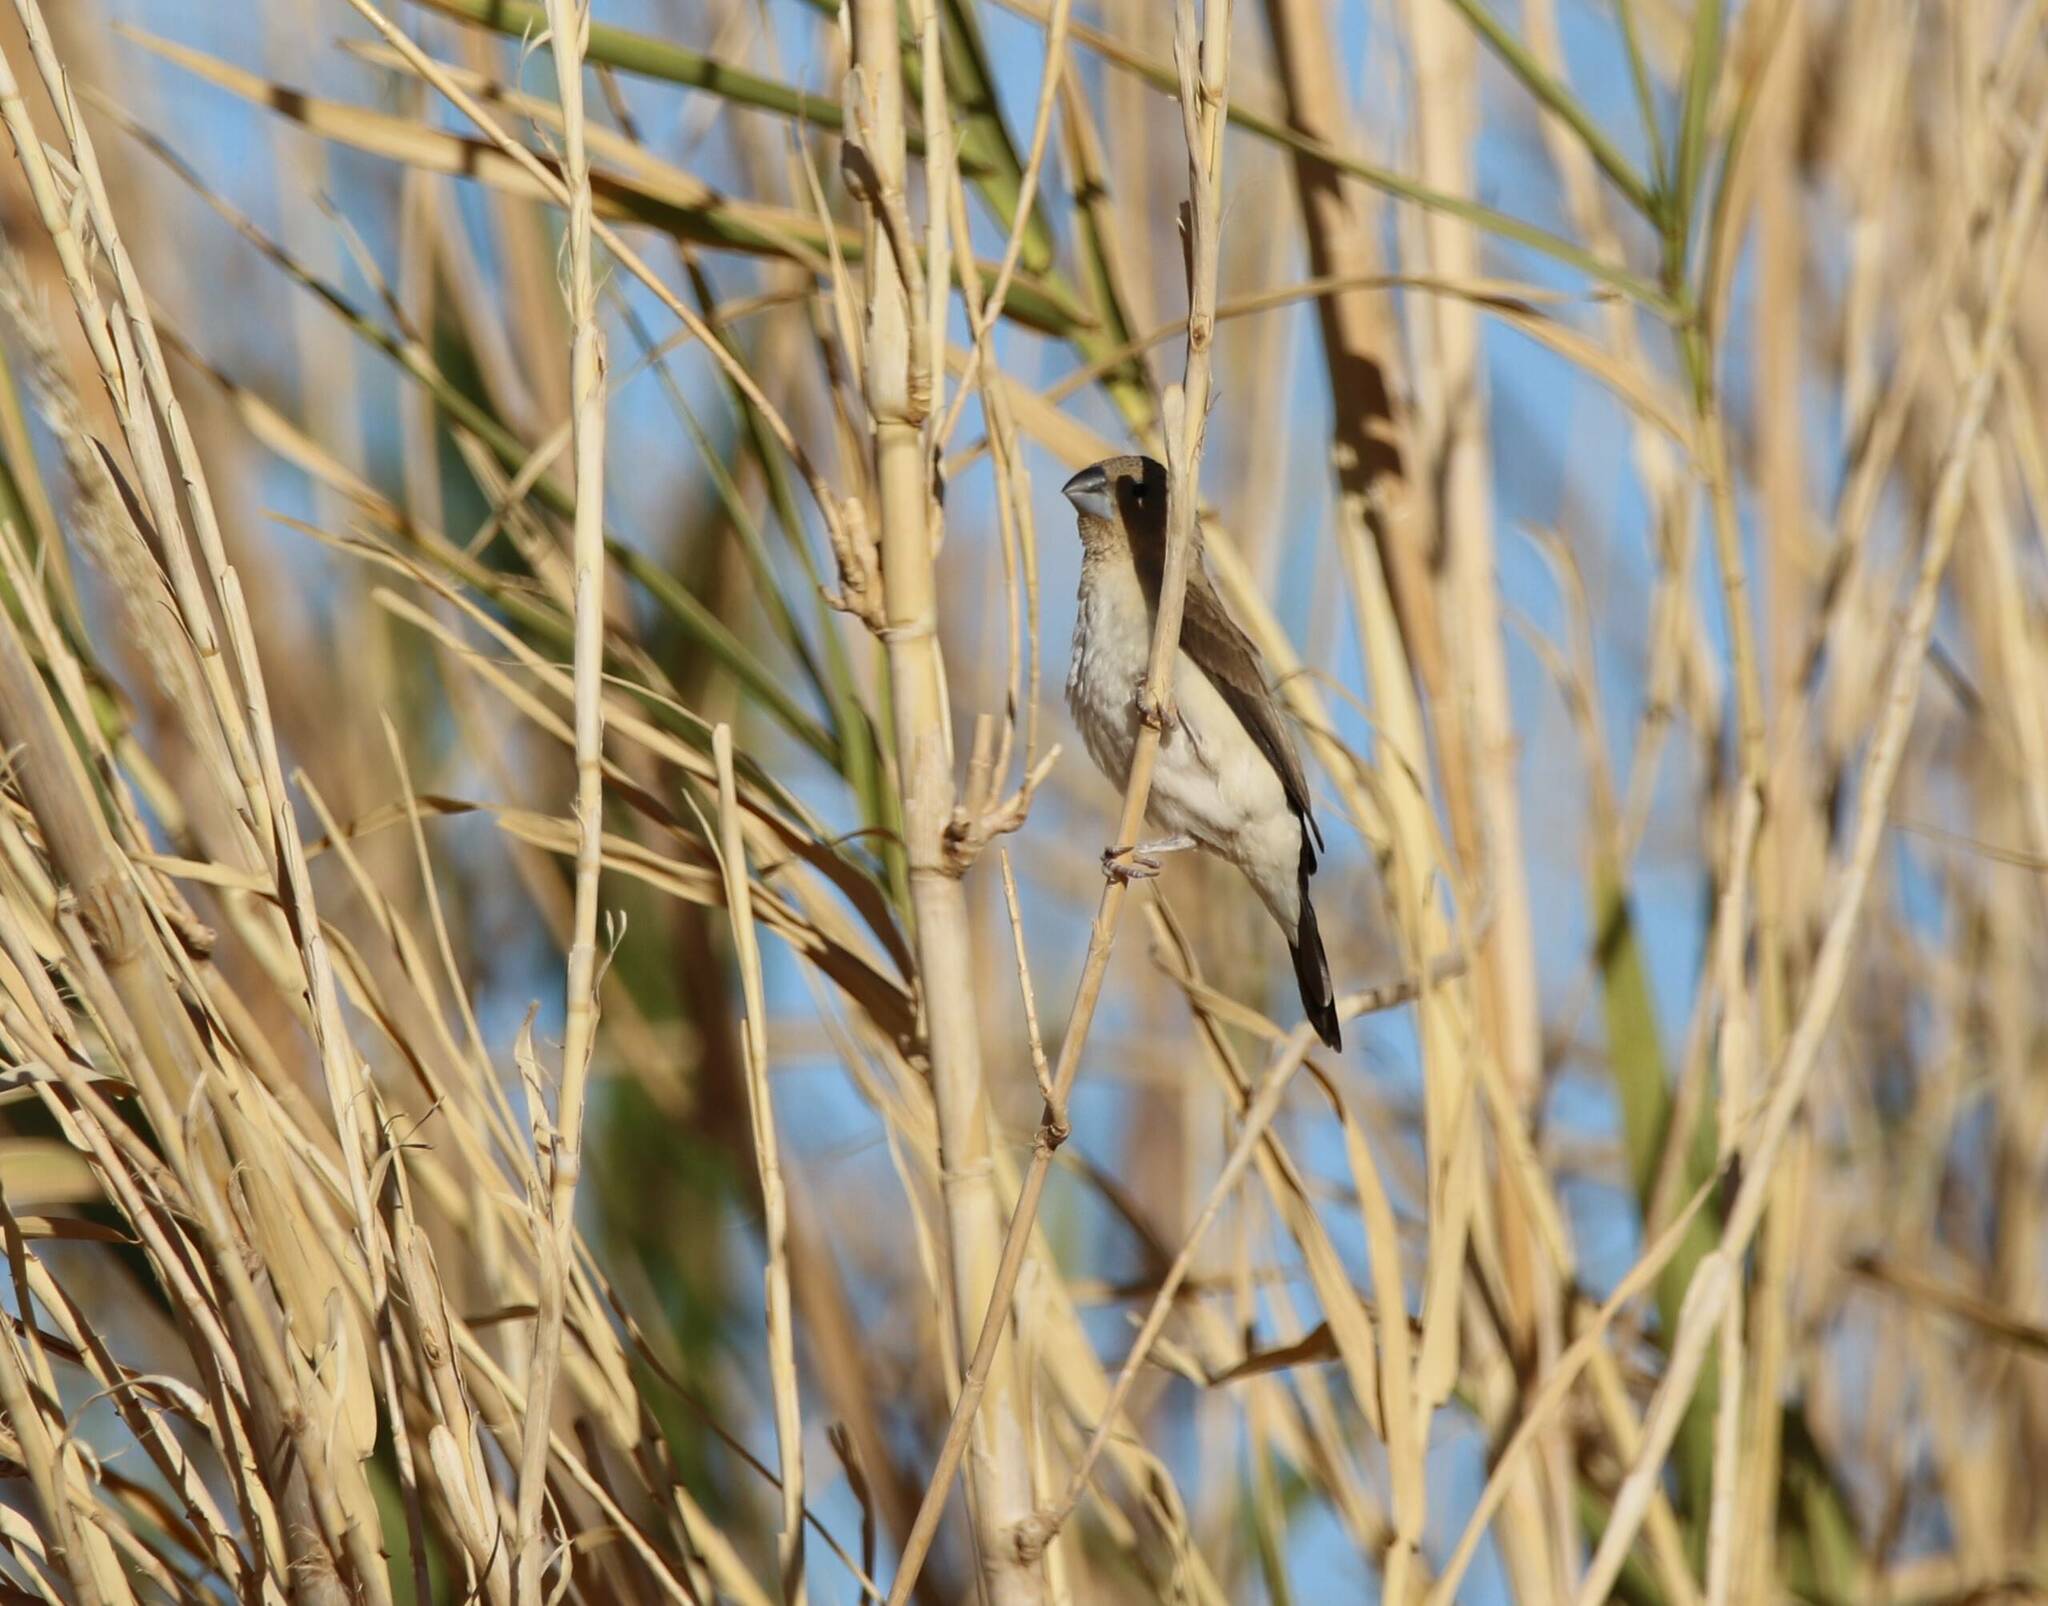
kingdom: Animalia
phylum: Chordata
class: Aves
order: Passeriformes
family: Estrildidae
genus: Euodice
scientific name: Euodice cantans
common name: African silverbill
